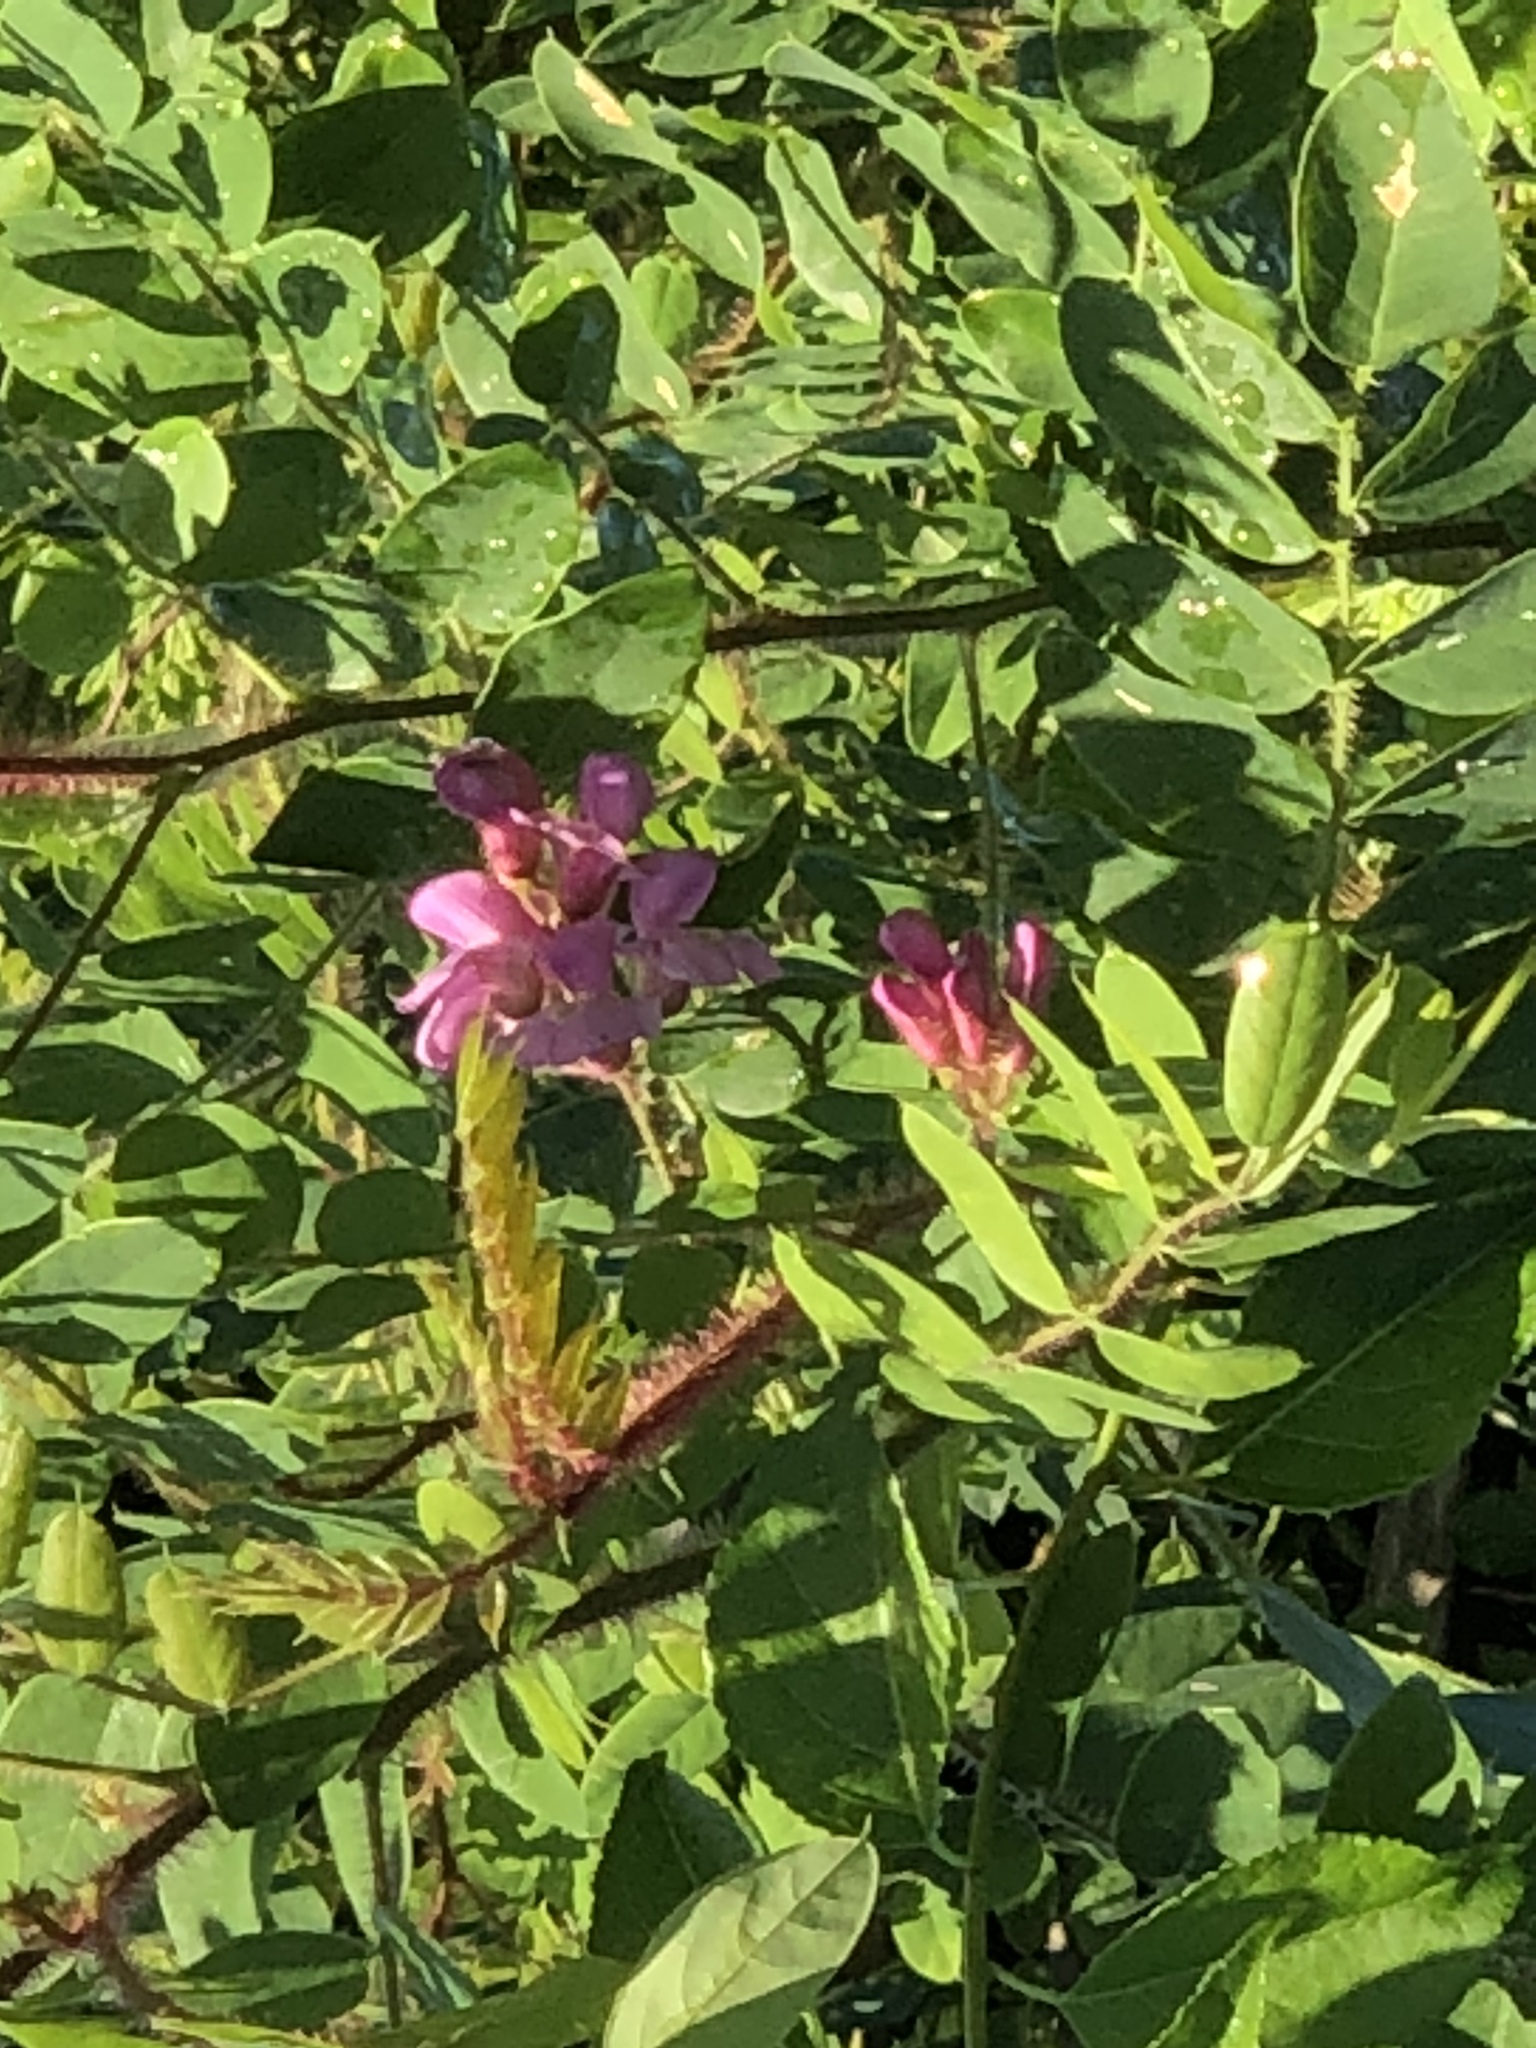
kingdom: Plantae
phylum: Tracheophyta
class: Magnoliopsida
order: Fabales
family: Fabaceae
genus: Robinia
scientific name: Robinia hispida
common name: Bristly locust
